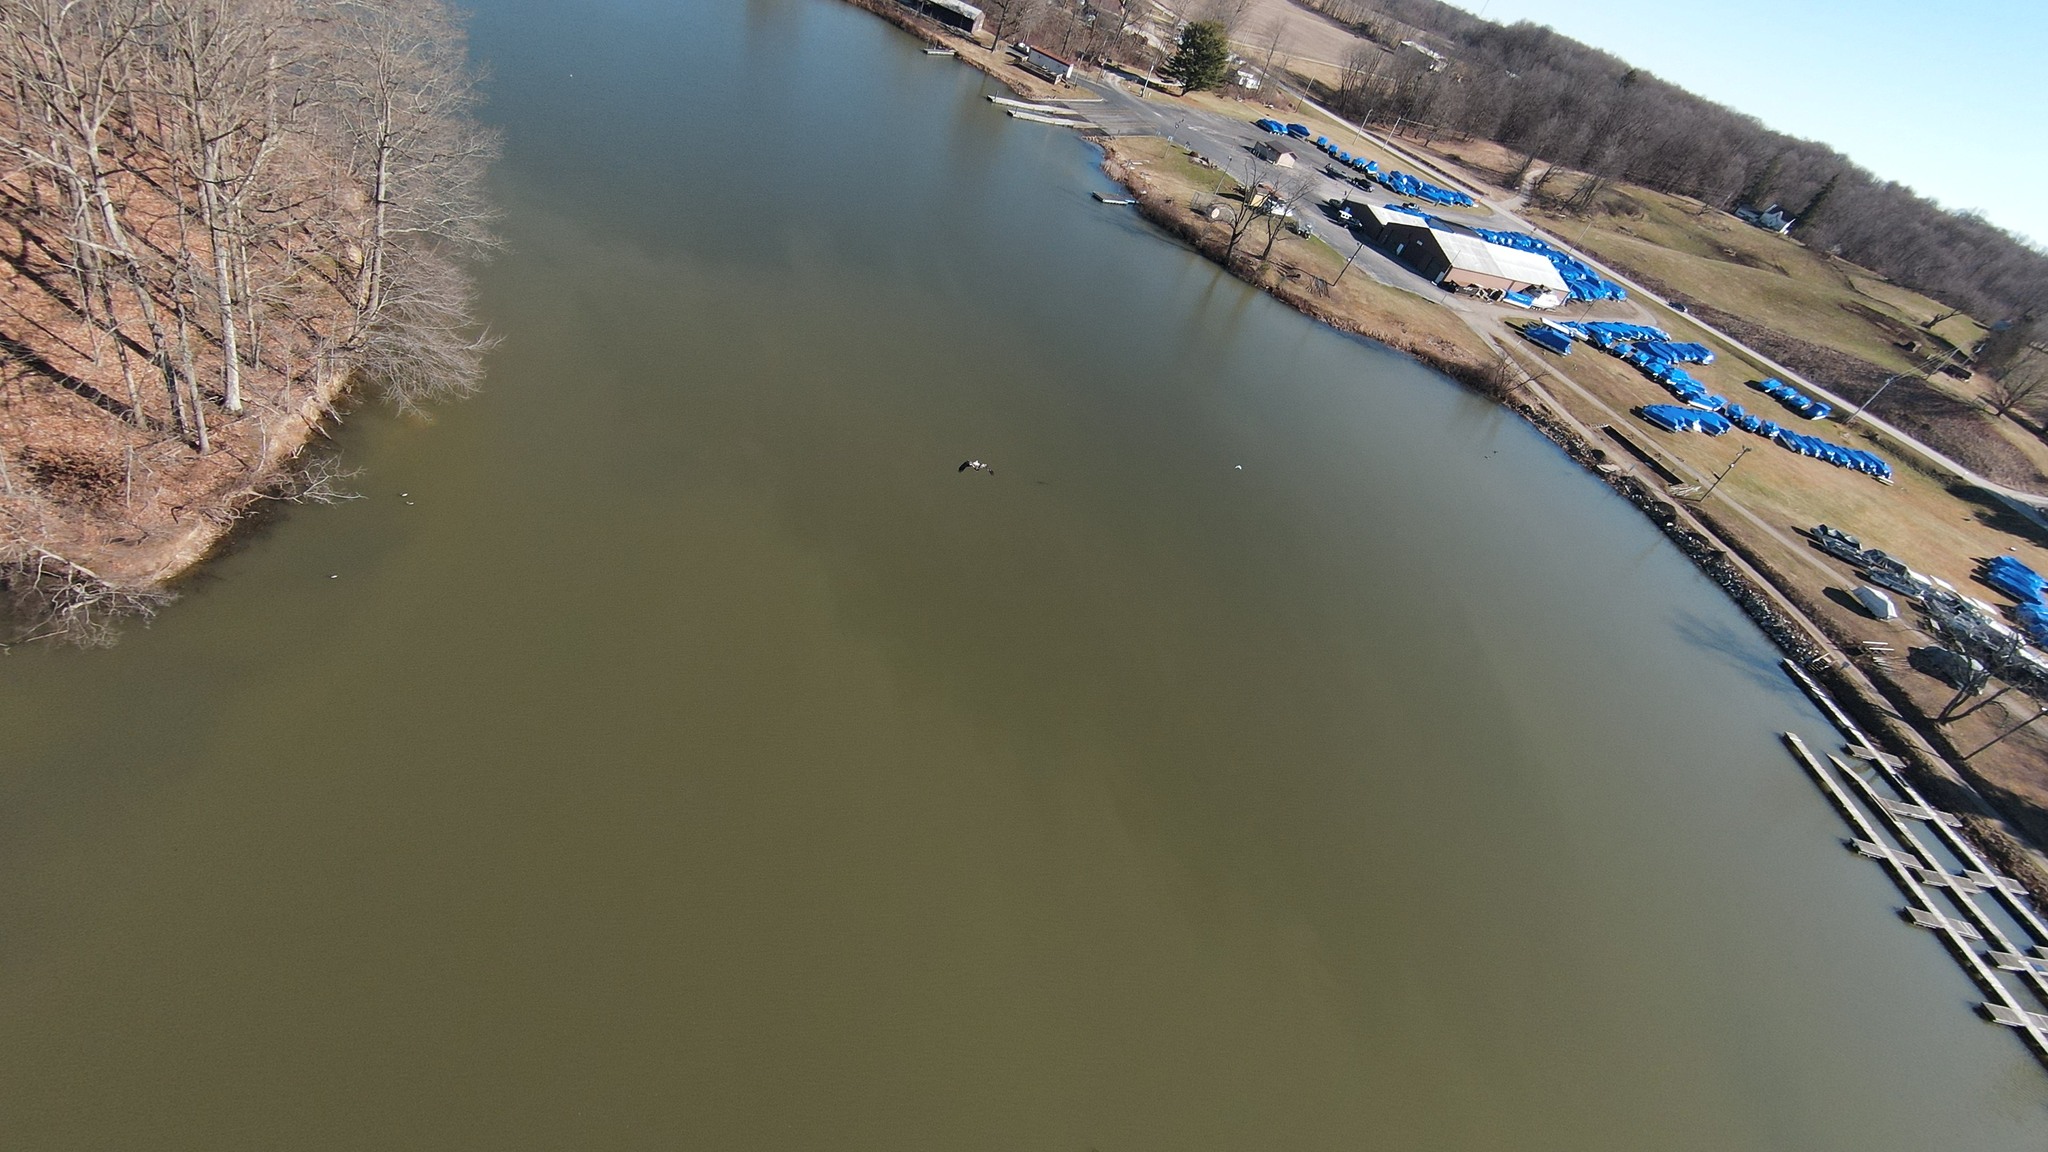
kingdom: Animalia
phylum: Chordata
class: Aves
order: Accipitriformes
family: Accipitridae
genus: Haliaeetus
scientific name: Haliaeetus leucocephalus
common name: Bald eagle
